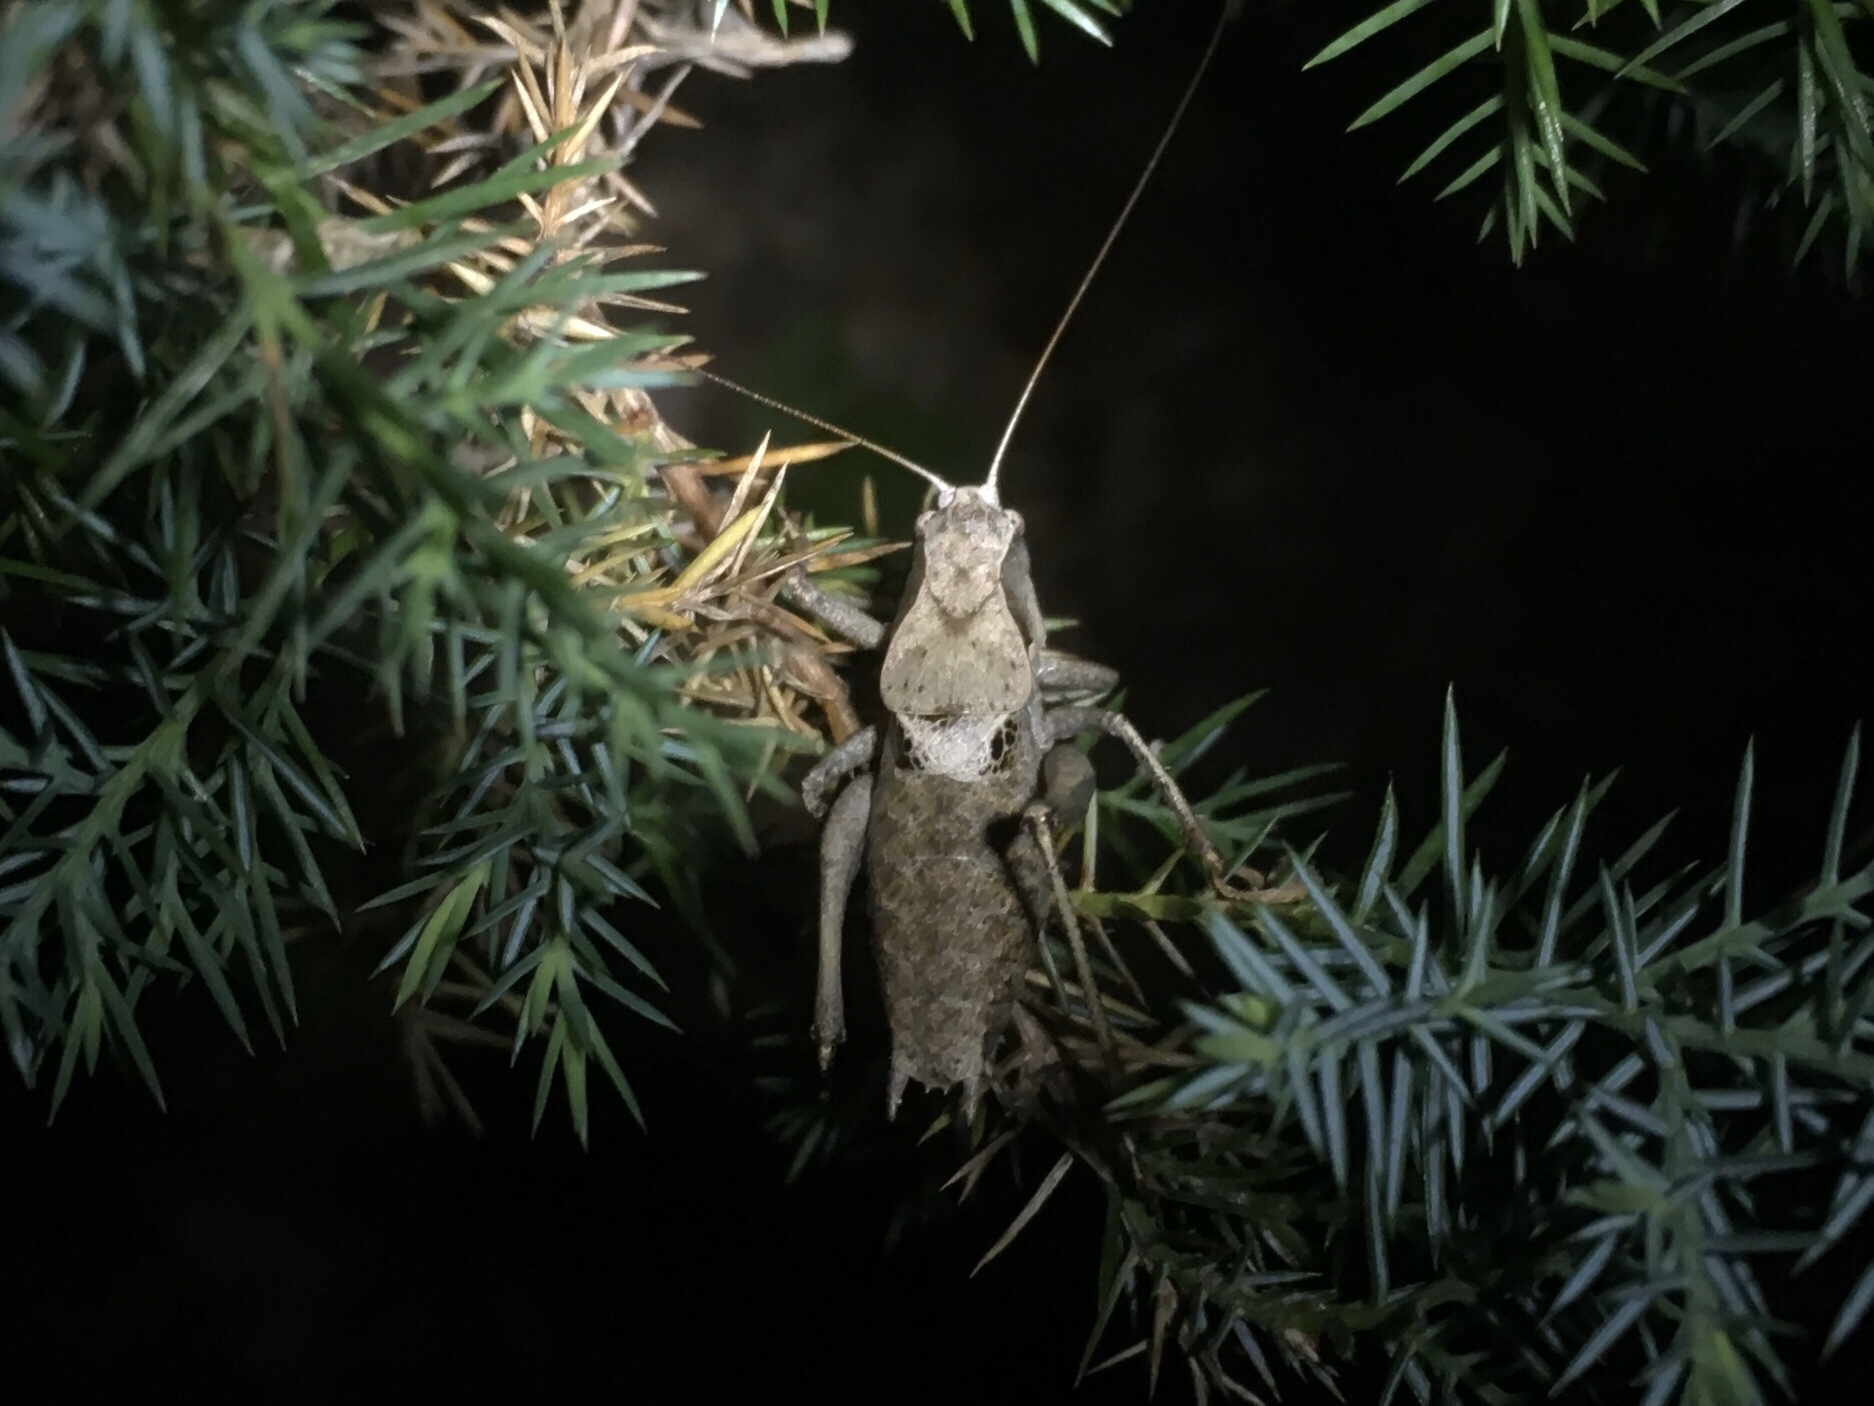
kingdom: Animalia
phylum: Arthropoda
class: Insecta
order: Orthoptera
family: Tettigoniidae
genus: Atlanticus
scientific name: Atlanticus davisi
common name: Davis's shield-bearer
